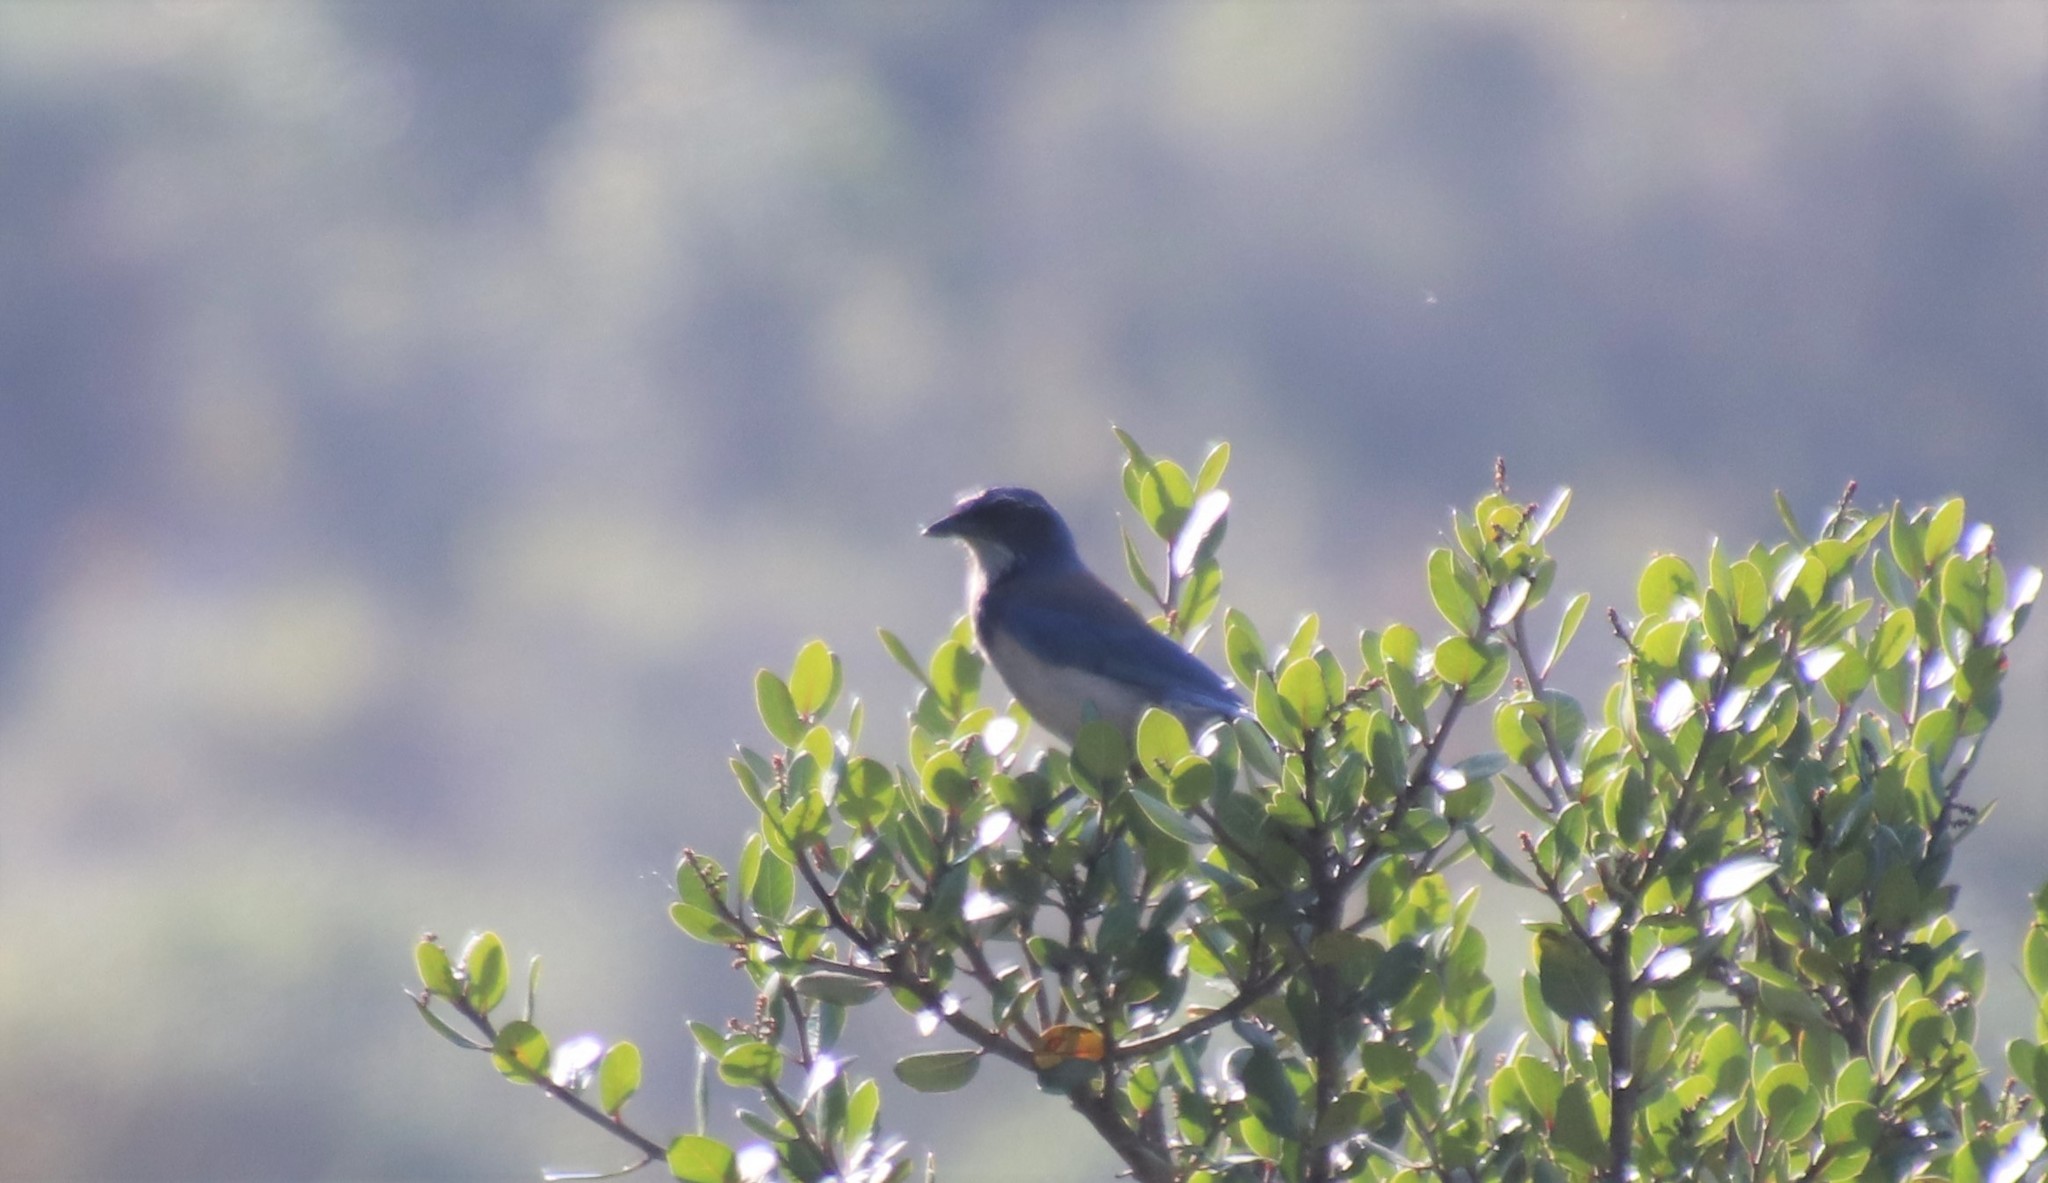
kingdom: Animalia
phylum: Chordata
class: Aves
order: Passeriformes
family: Corvidae
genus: Aphelocoma
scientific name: Aphelocoma californica
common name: California scrub-jay
